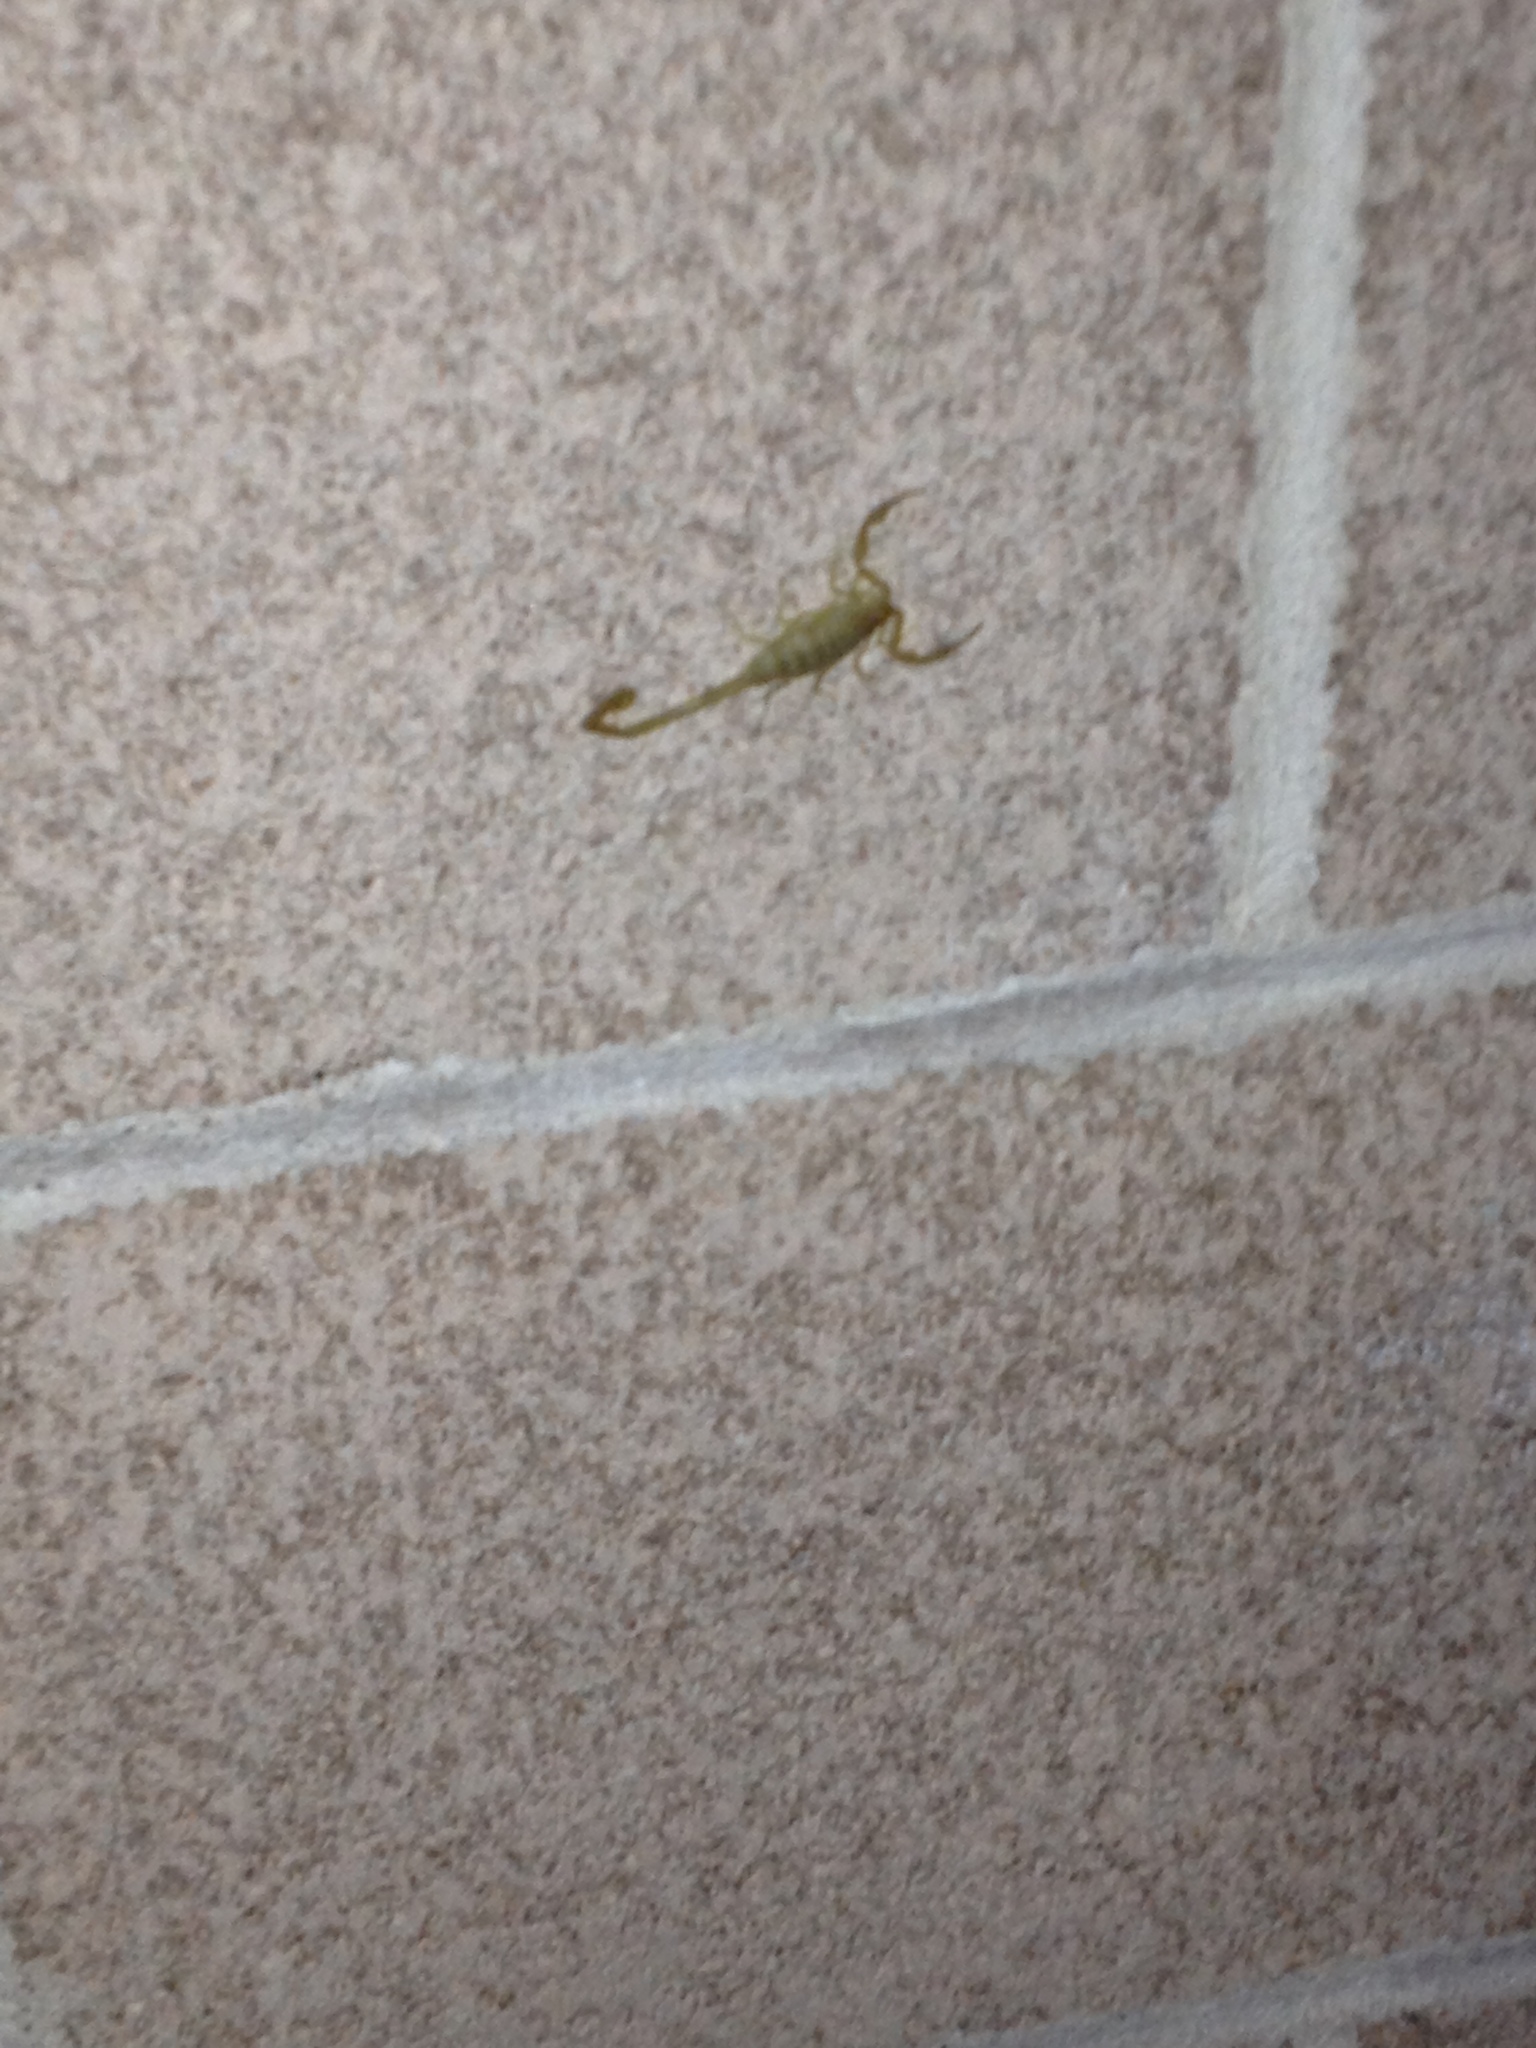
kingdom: Animalia
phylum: Arthropoda
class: Arachnida
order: Scorpiones
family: Buthidae
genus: Centruroides
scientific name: Centruroides sculpturatus
